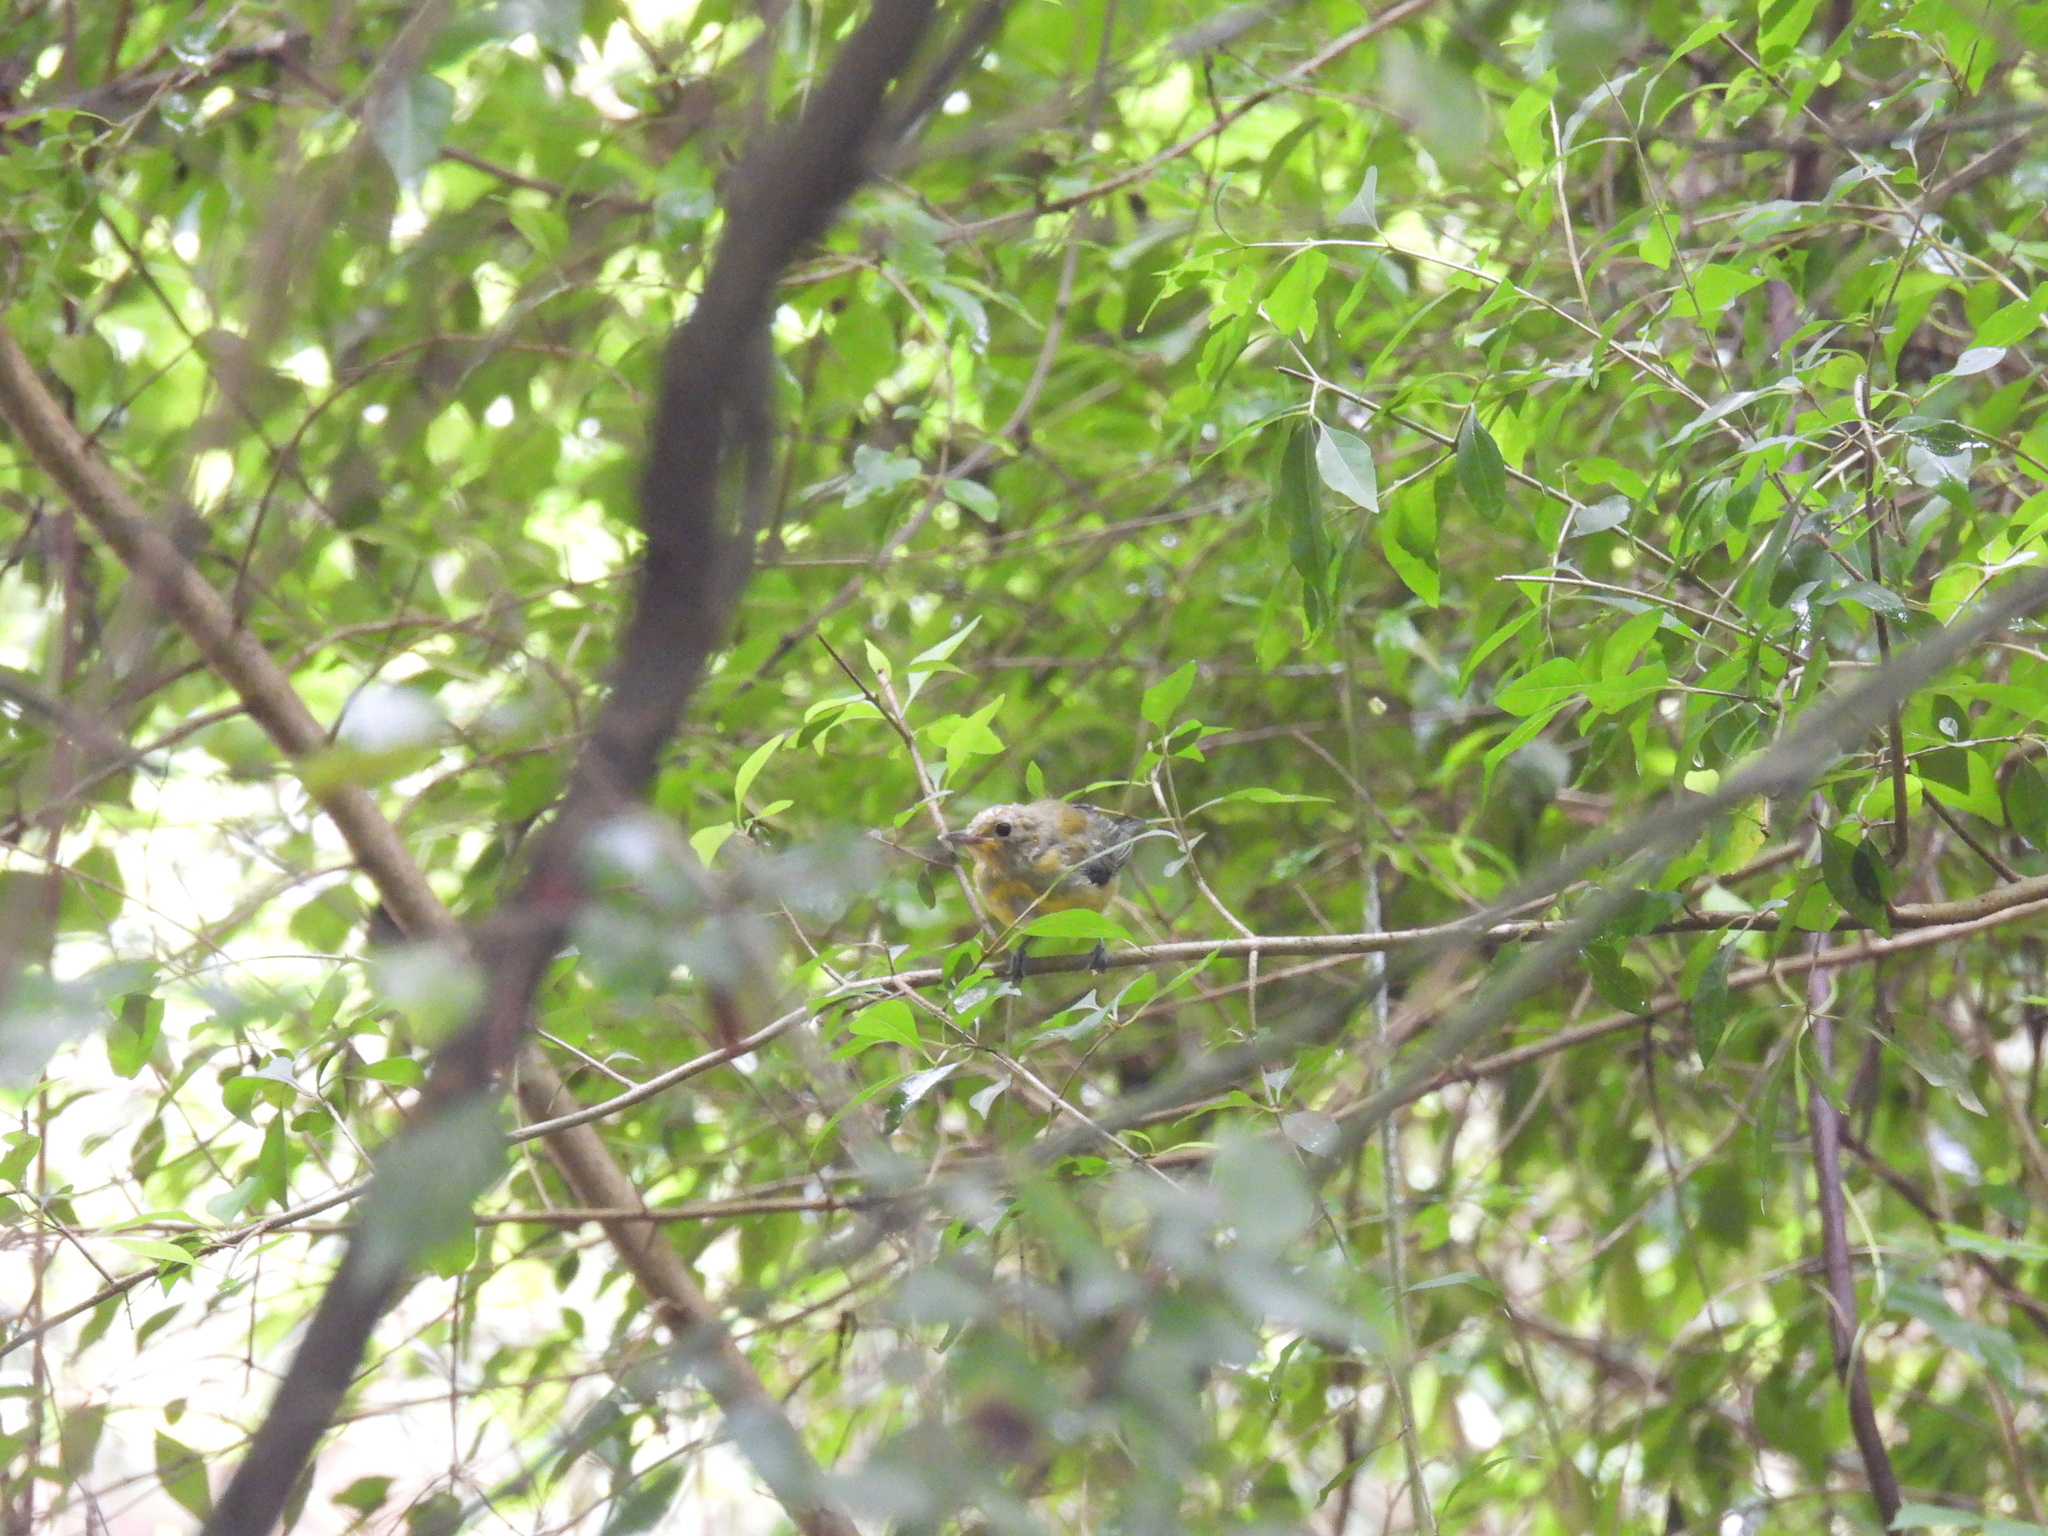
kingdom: Animalia
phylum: Chordata
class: Aves
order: Passeriformes
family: Parulidae
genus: Protonotaria
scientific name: Protonotaria citrea
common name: Prothonotary warbler
